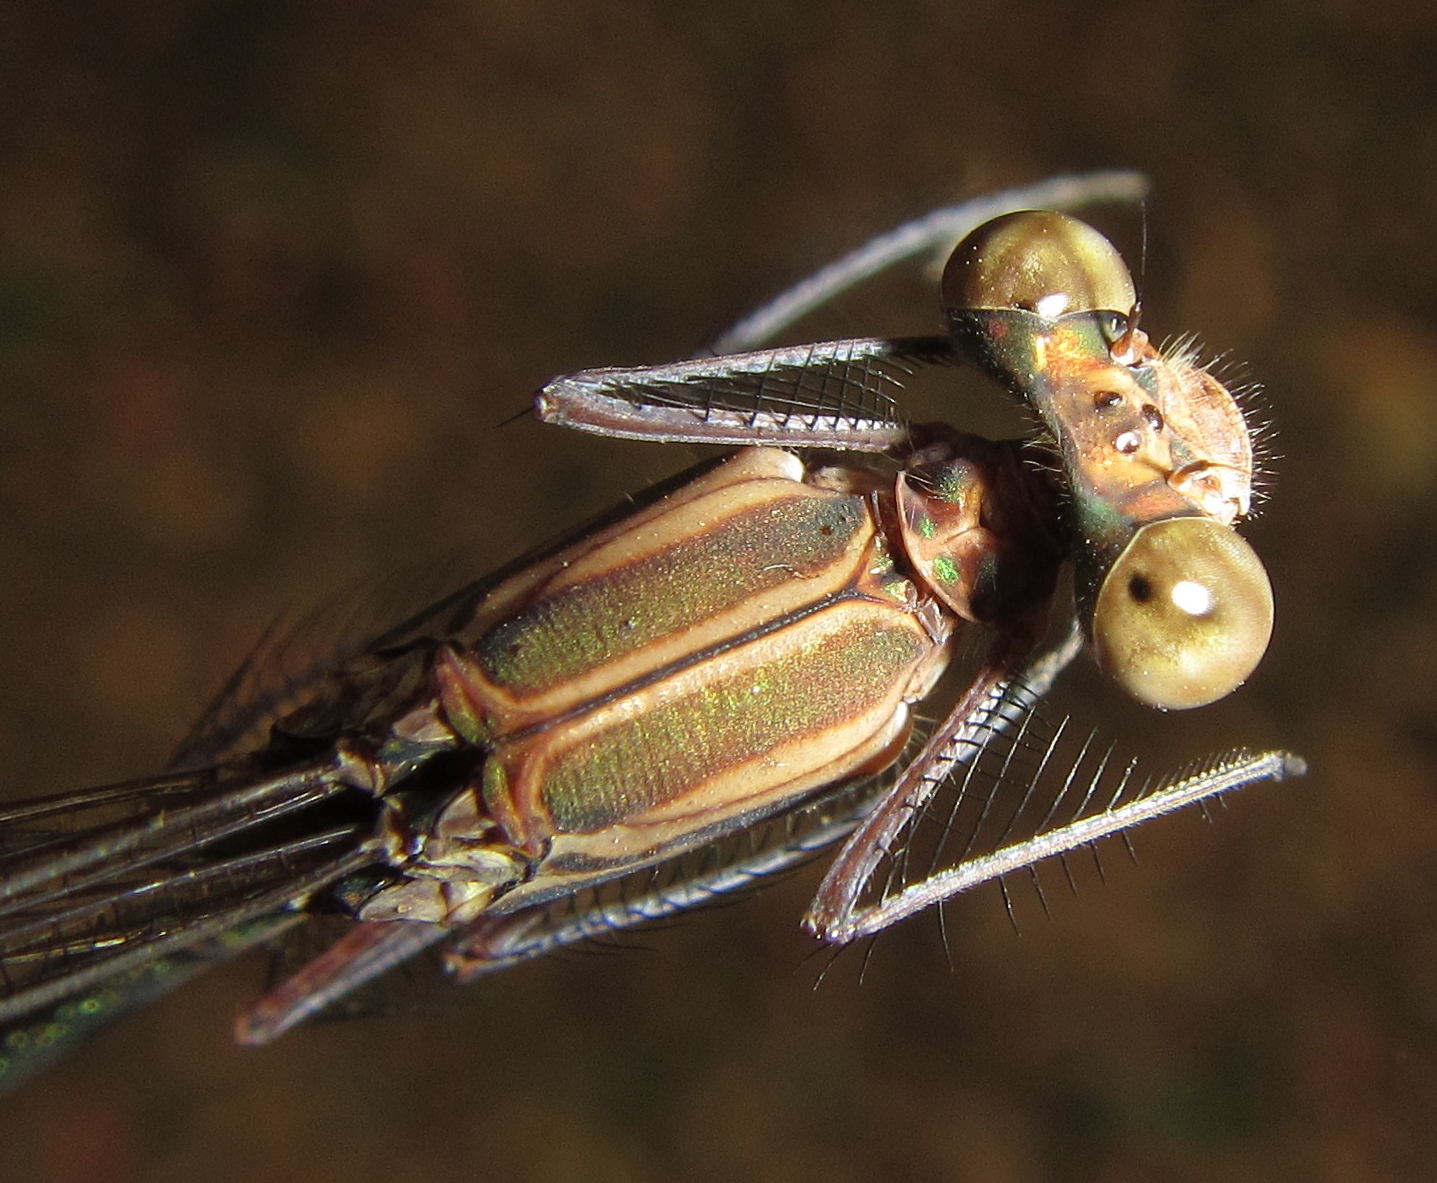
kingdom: Animalia
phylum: Arthropoda
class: Insecta
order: Odonata
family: Calopterygidae
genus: Phaon
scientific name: Phaon iridipennis
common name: Glistening demoiselle
